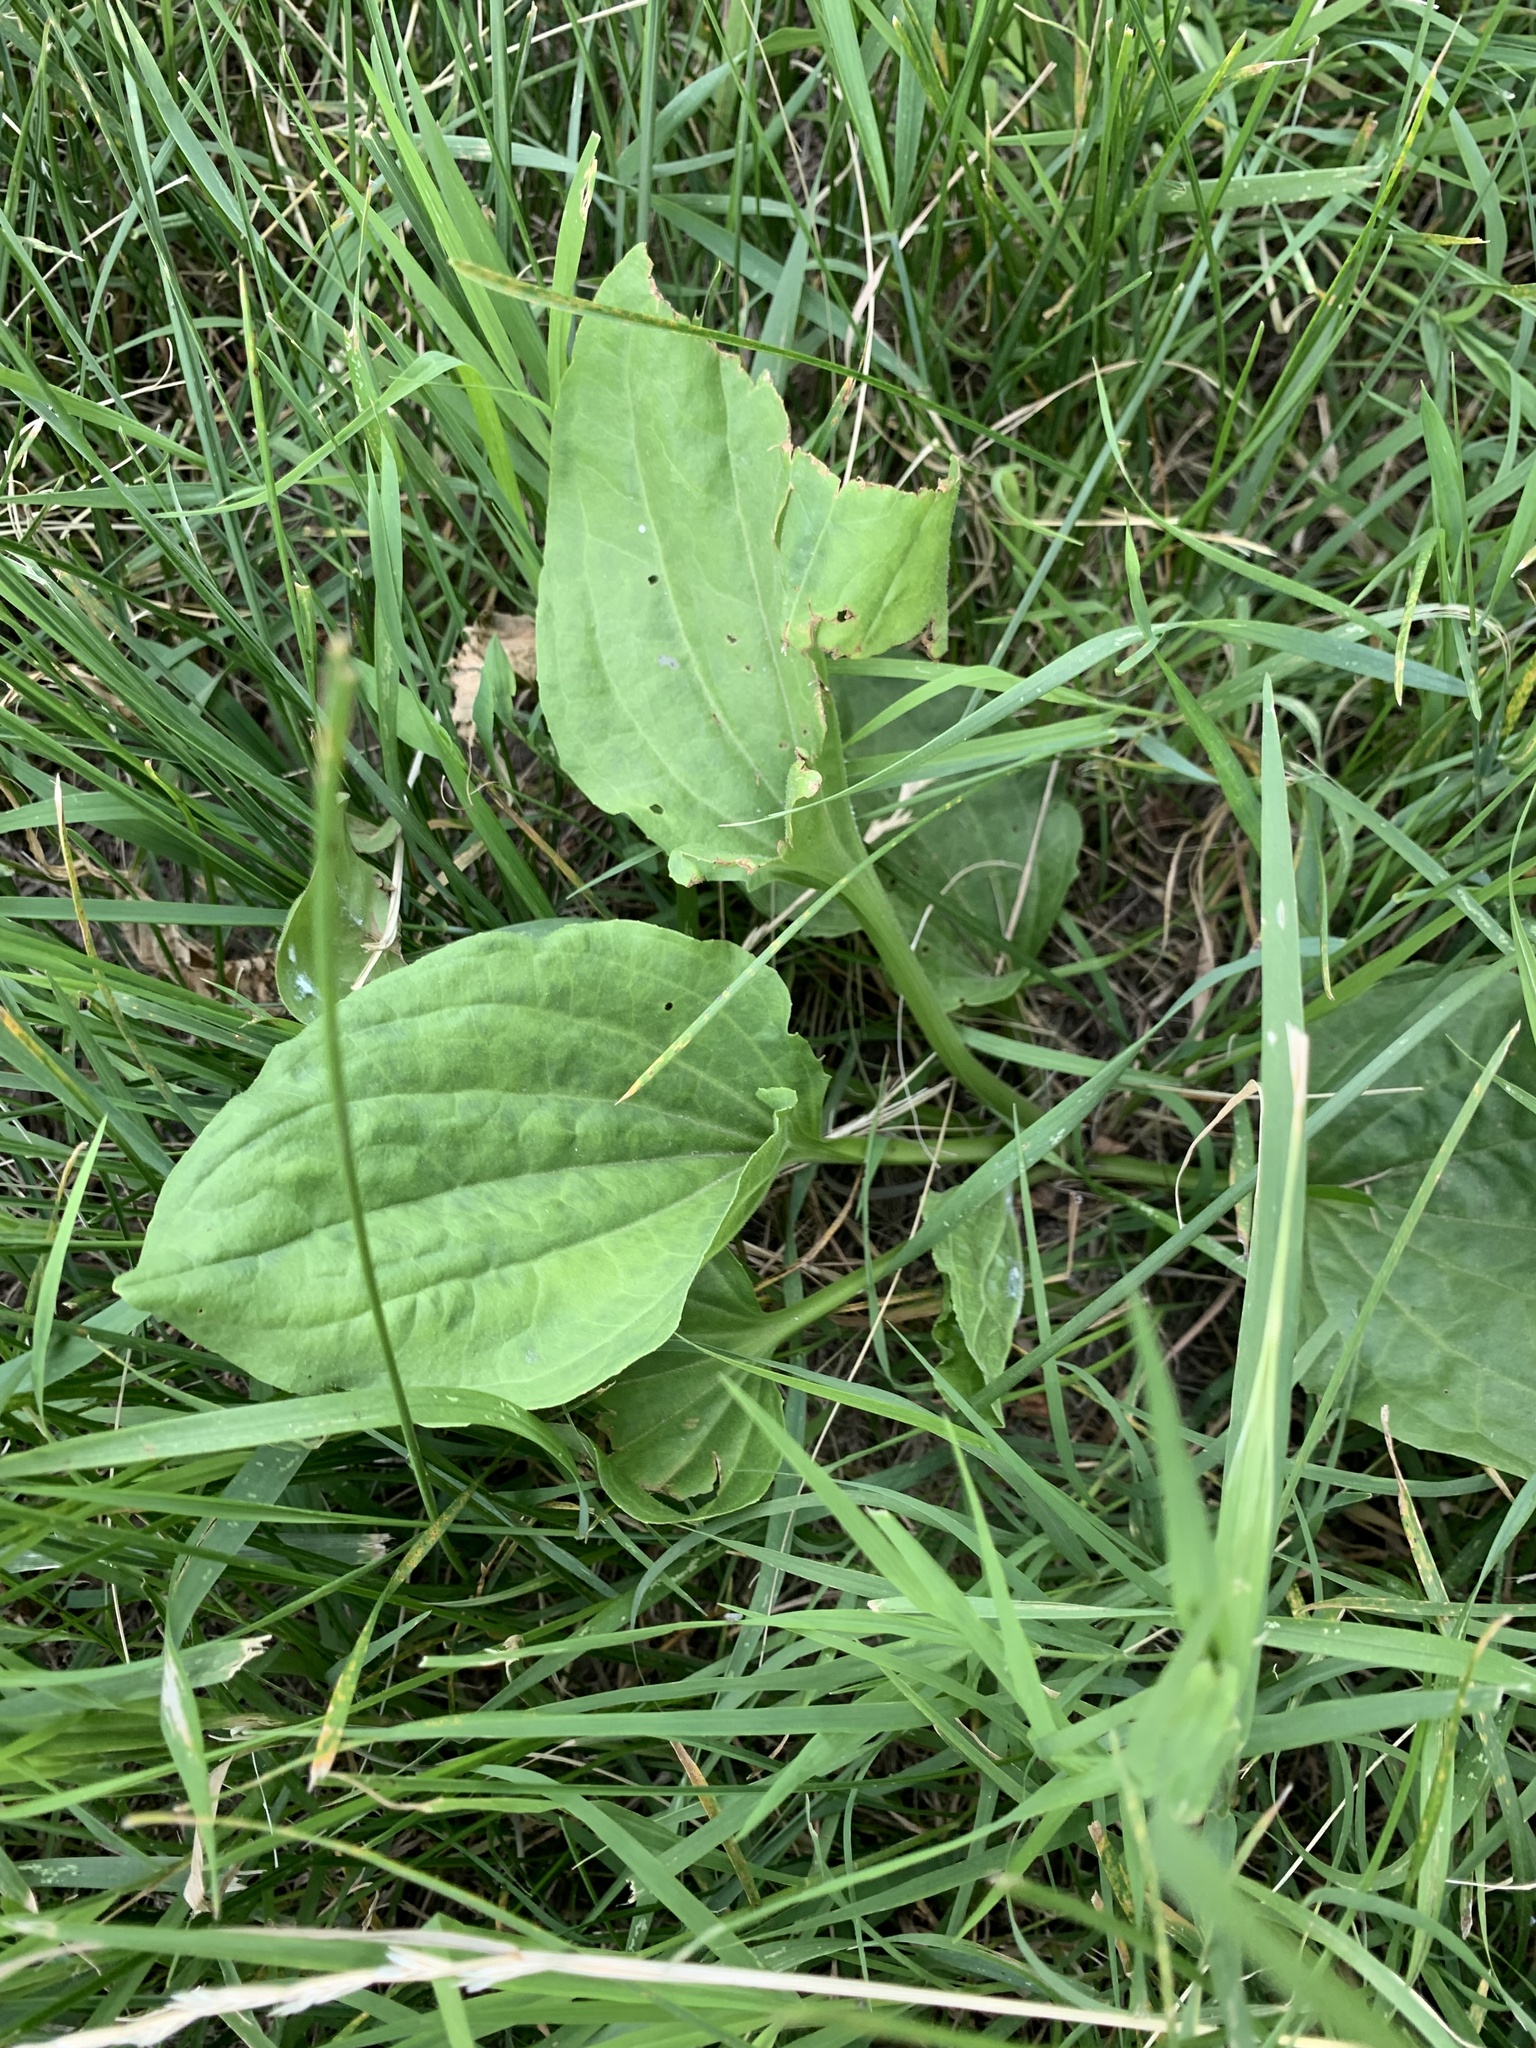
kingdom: Plantae
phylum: Tracheophyta
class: Magnoliopsida
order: Lamiales
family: Plantaginaceae
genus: Plantago
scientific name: Plantago major
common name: Common plantain
